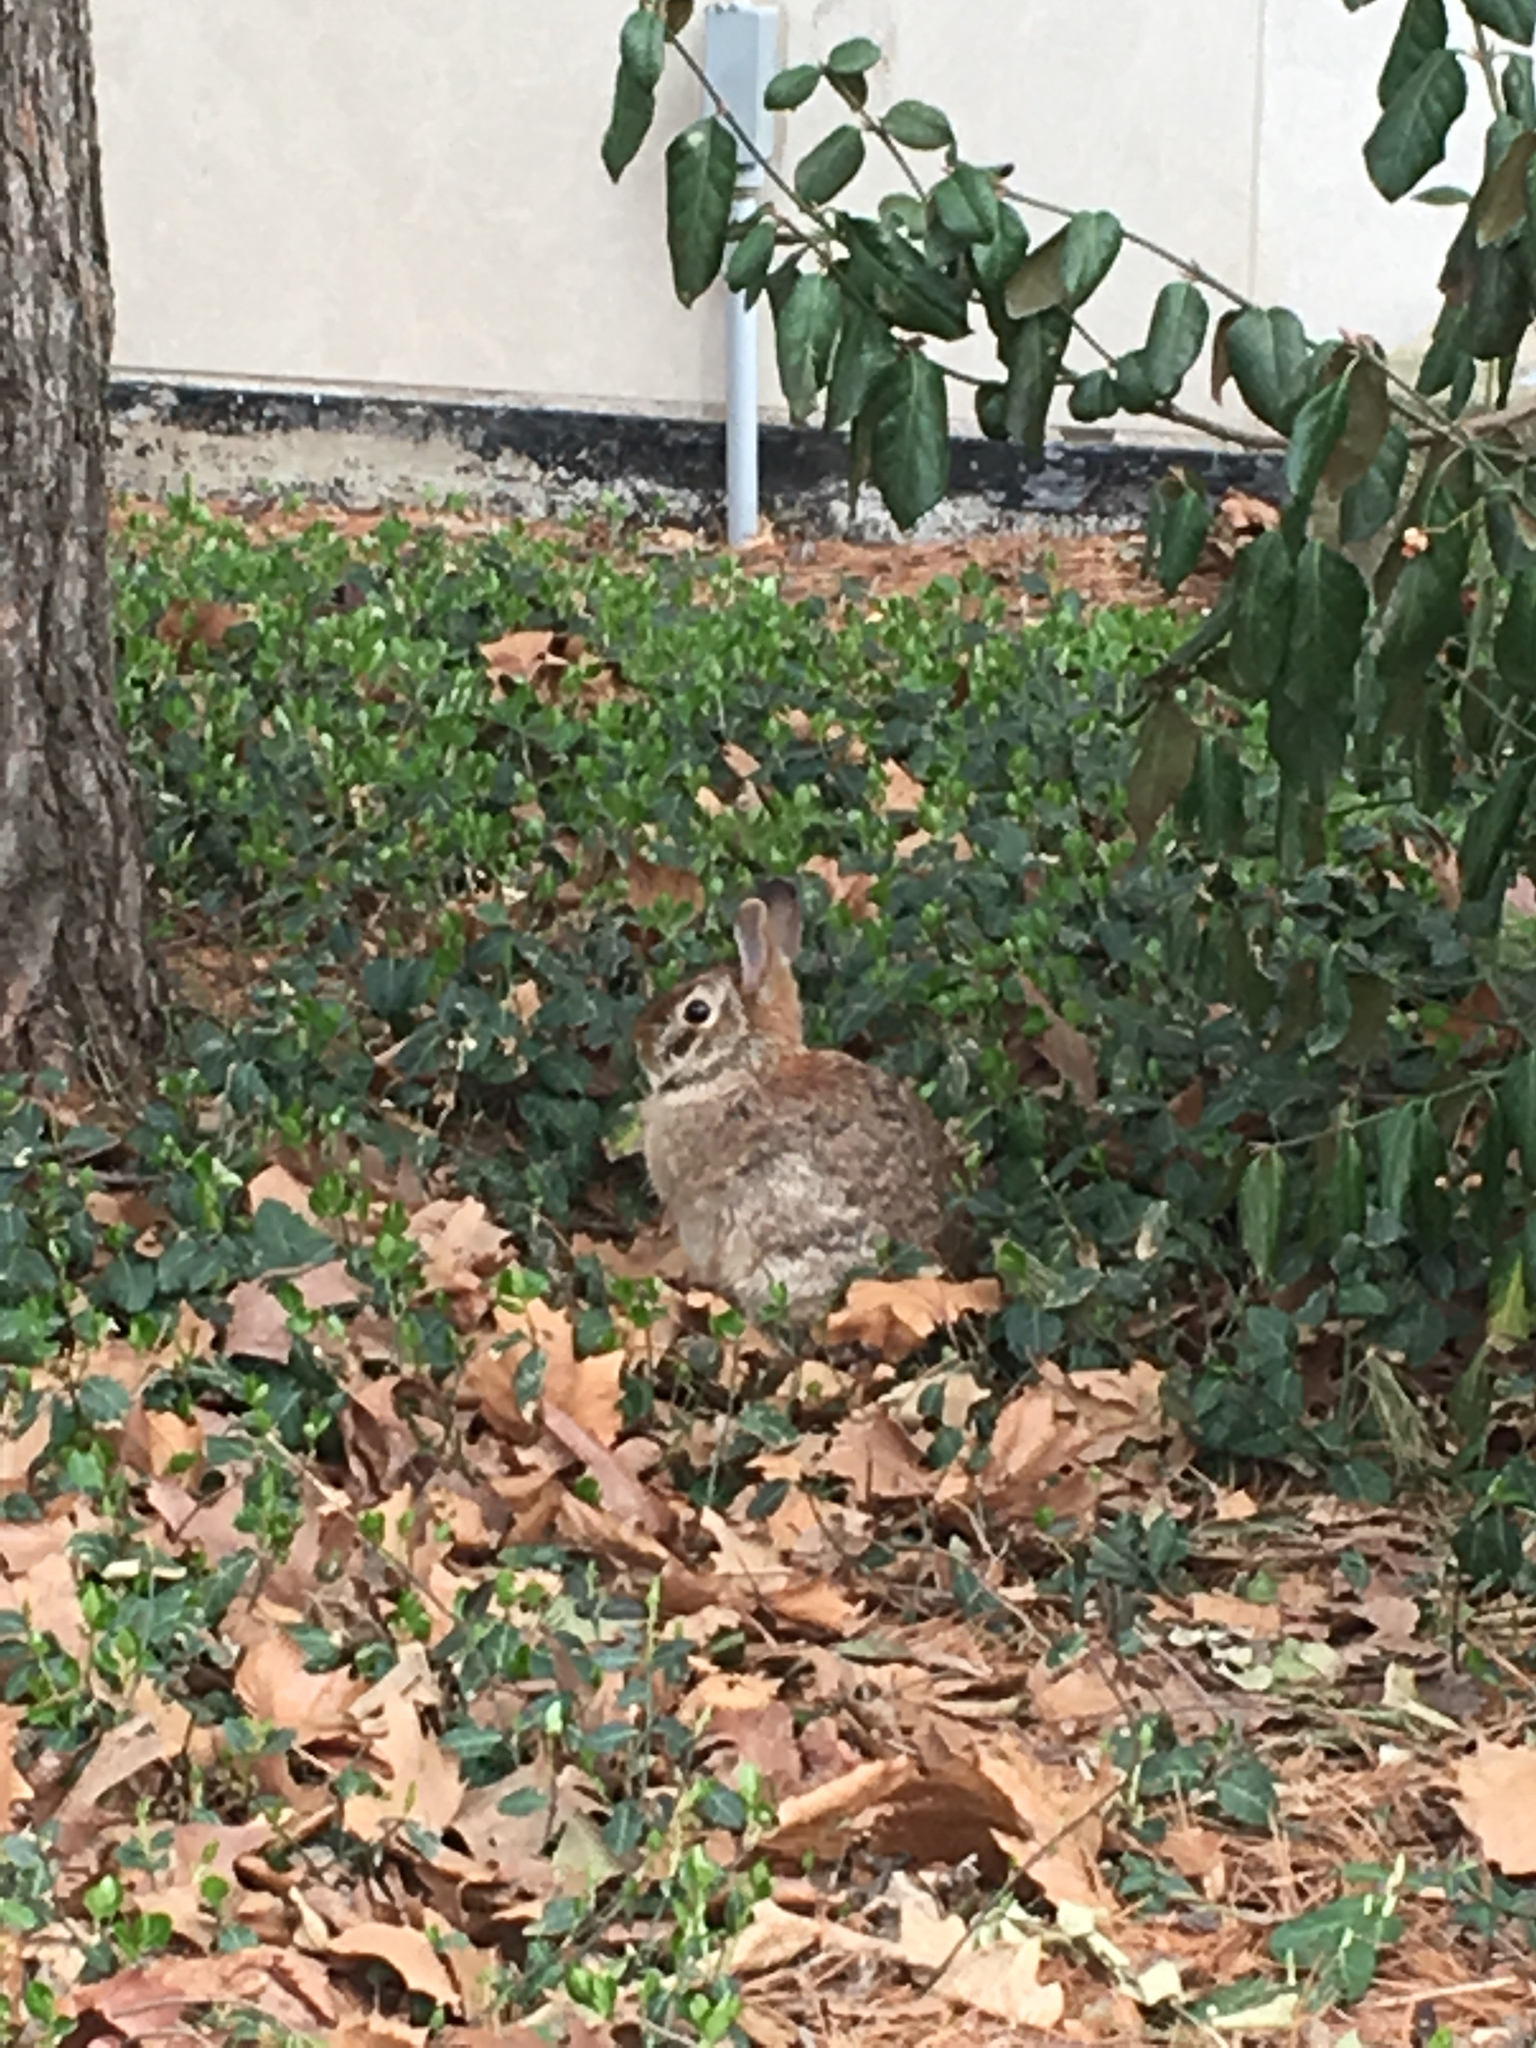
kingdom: Animalia
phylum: Chordata
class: Mammalia
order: Lagomorpha
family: Leporidae
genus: Sylvilagus
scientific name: Sylvilagus floridanus
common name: Eastern cottontail
